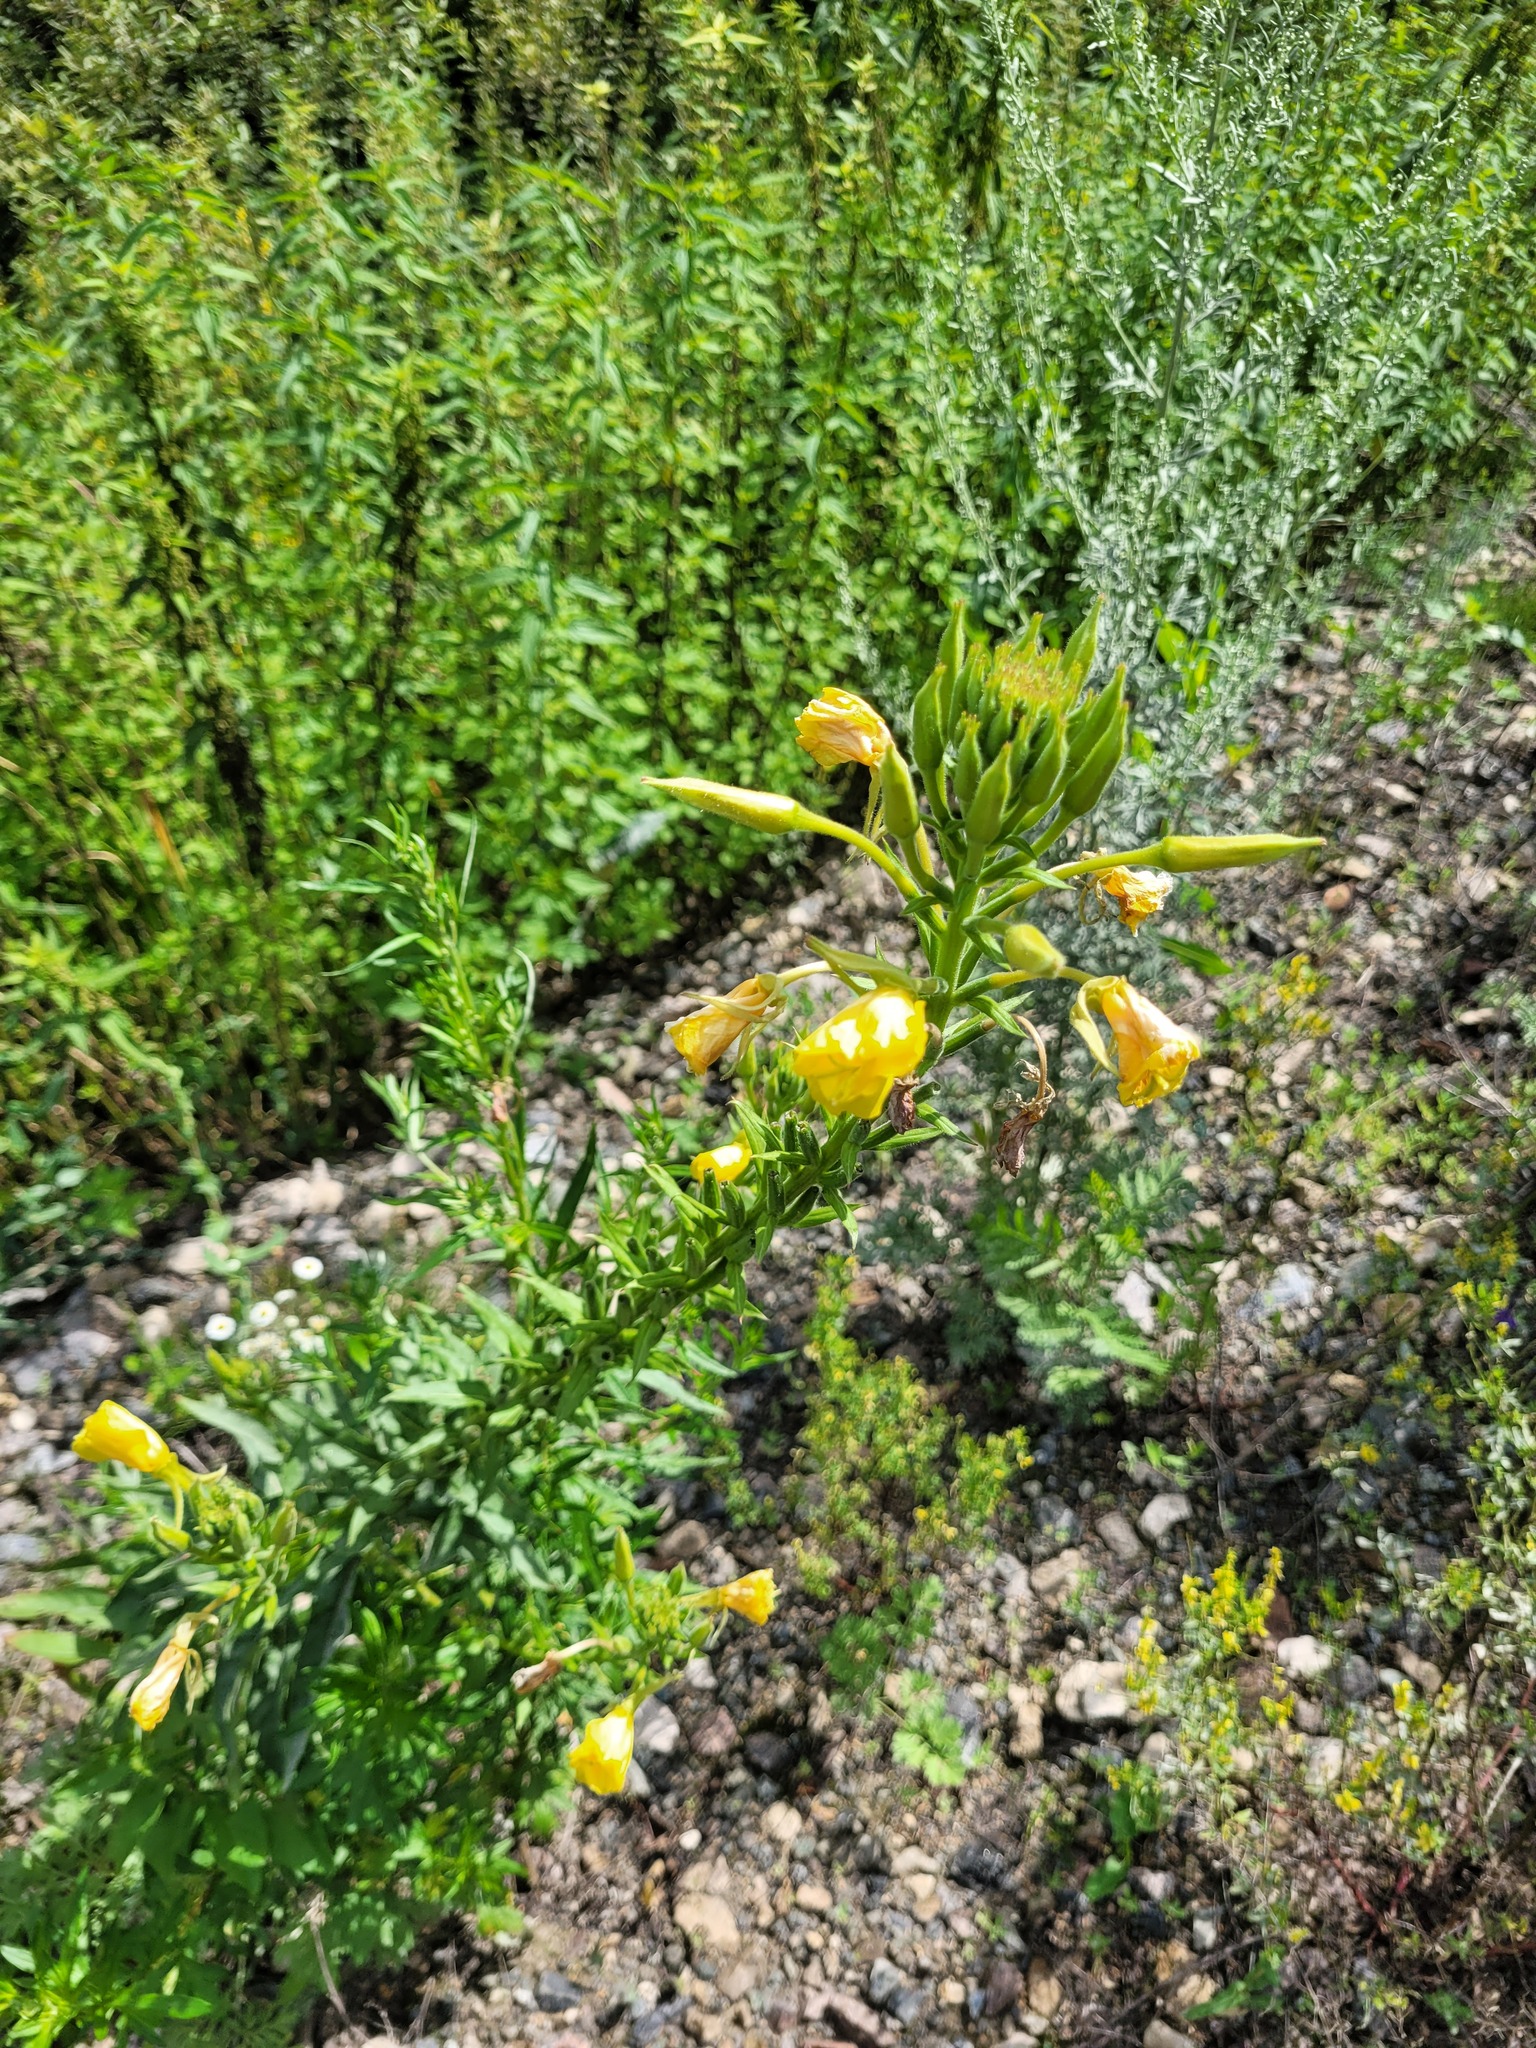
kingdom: Plantae
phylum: Tracheophyta
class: Magnoliopsida
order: Myrtales
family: Onagraceae
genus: Oenothera
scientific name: Oenothera biennis
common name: Common evening-primrose
